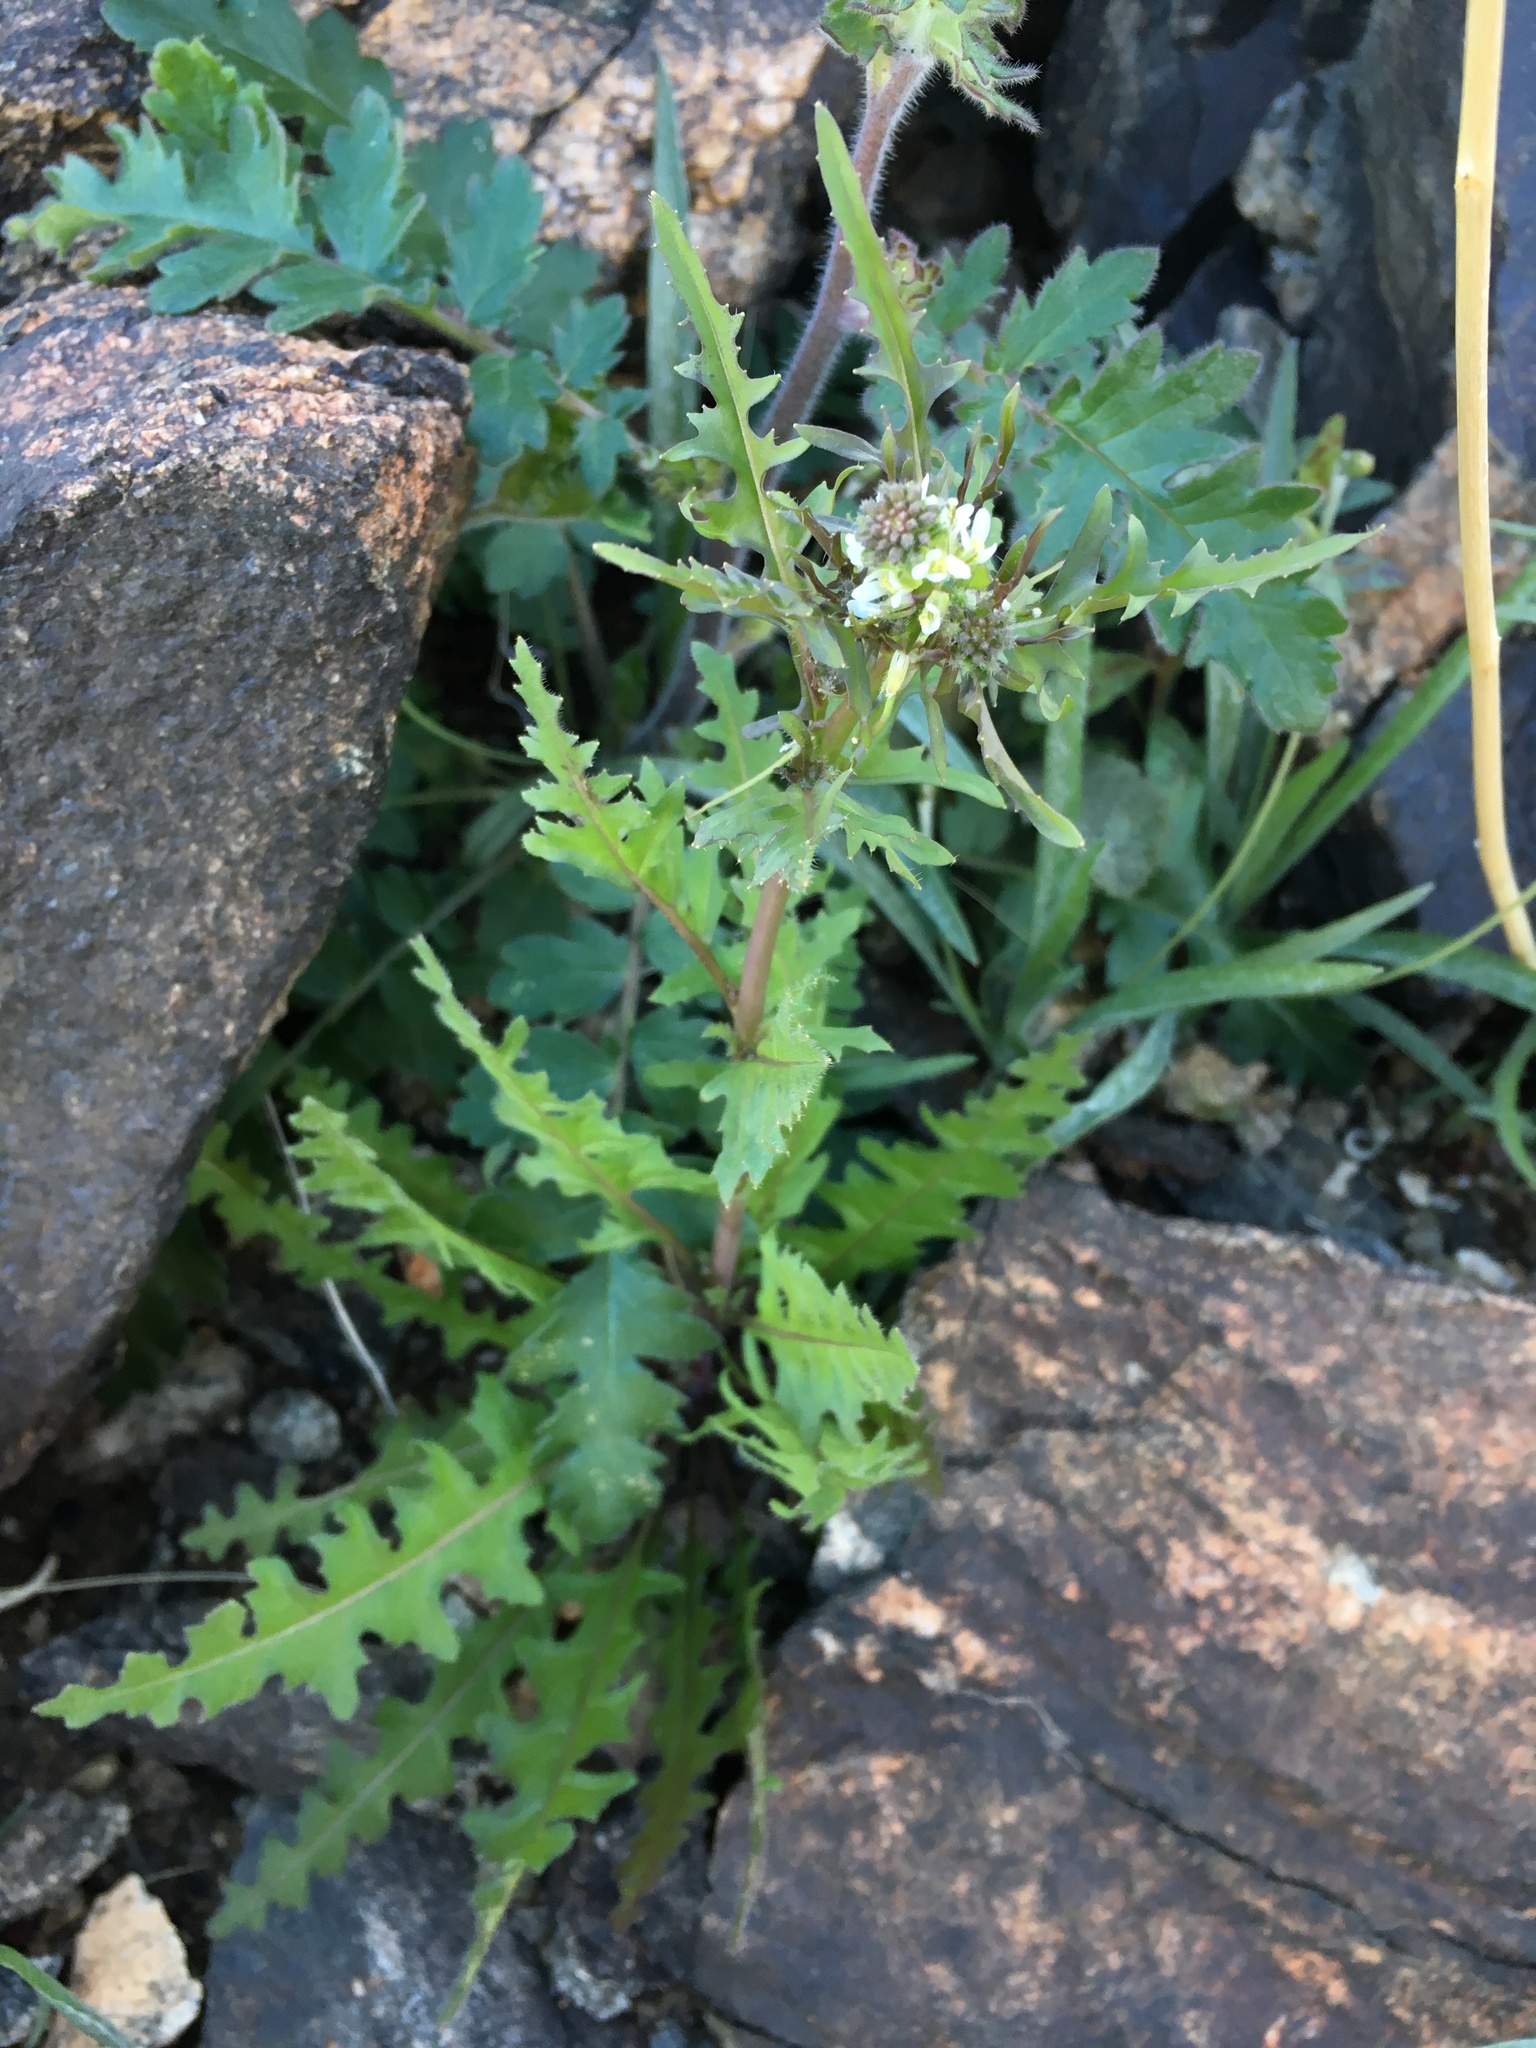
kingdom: Plantae
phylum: Tracheophyta
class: Magnoliopsida
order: Brassicales
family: Brassicaceae
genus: Streptanthus
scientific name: Streptanthus lasiophyllus
